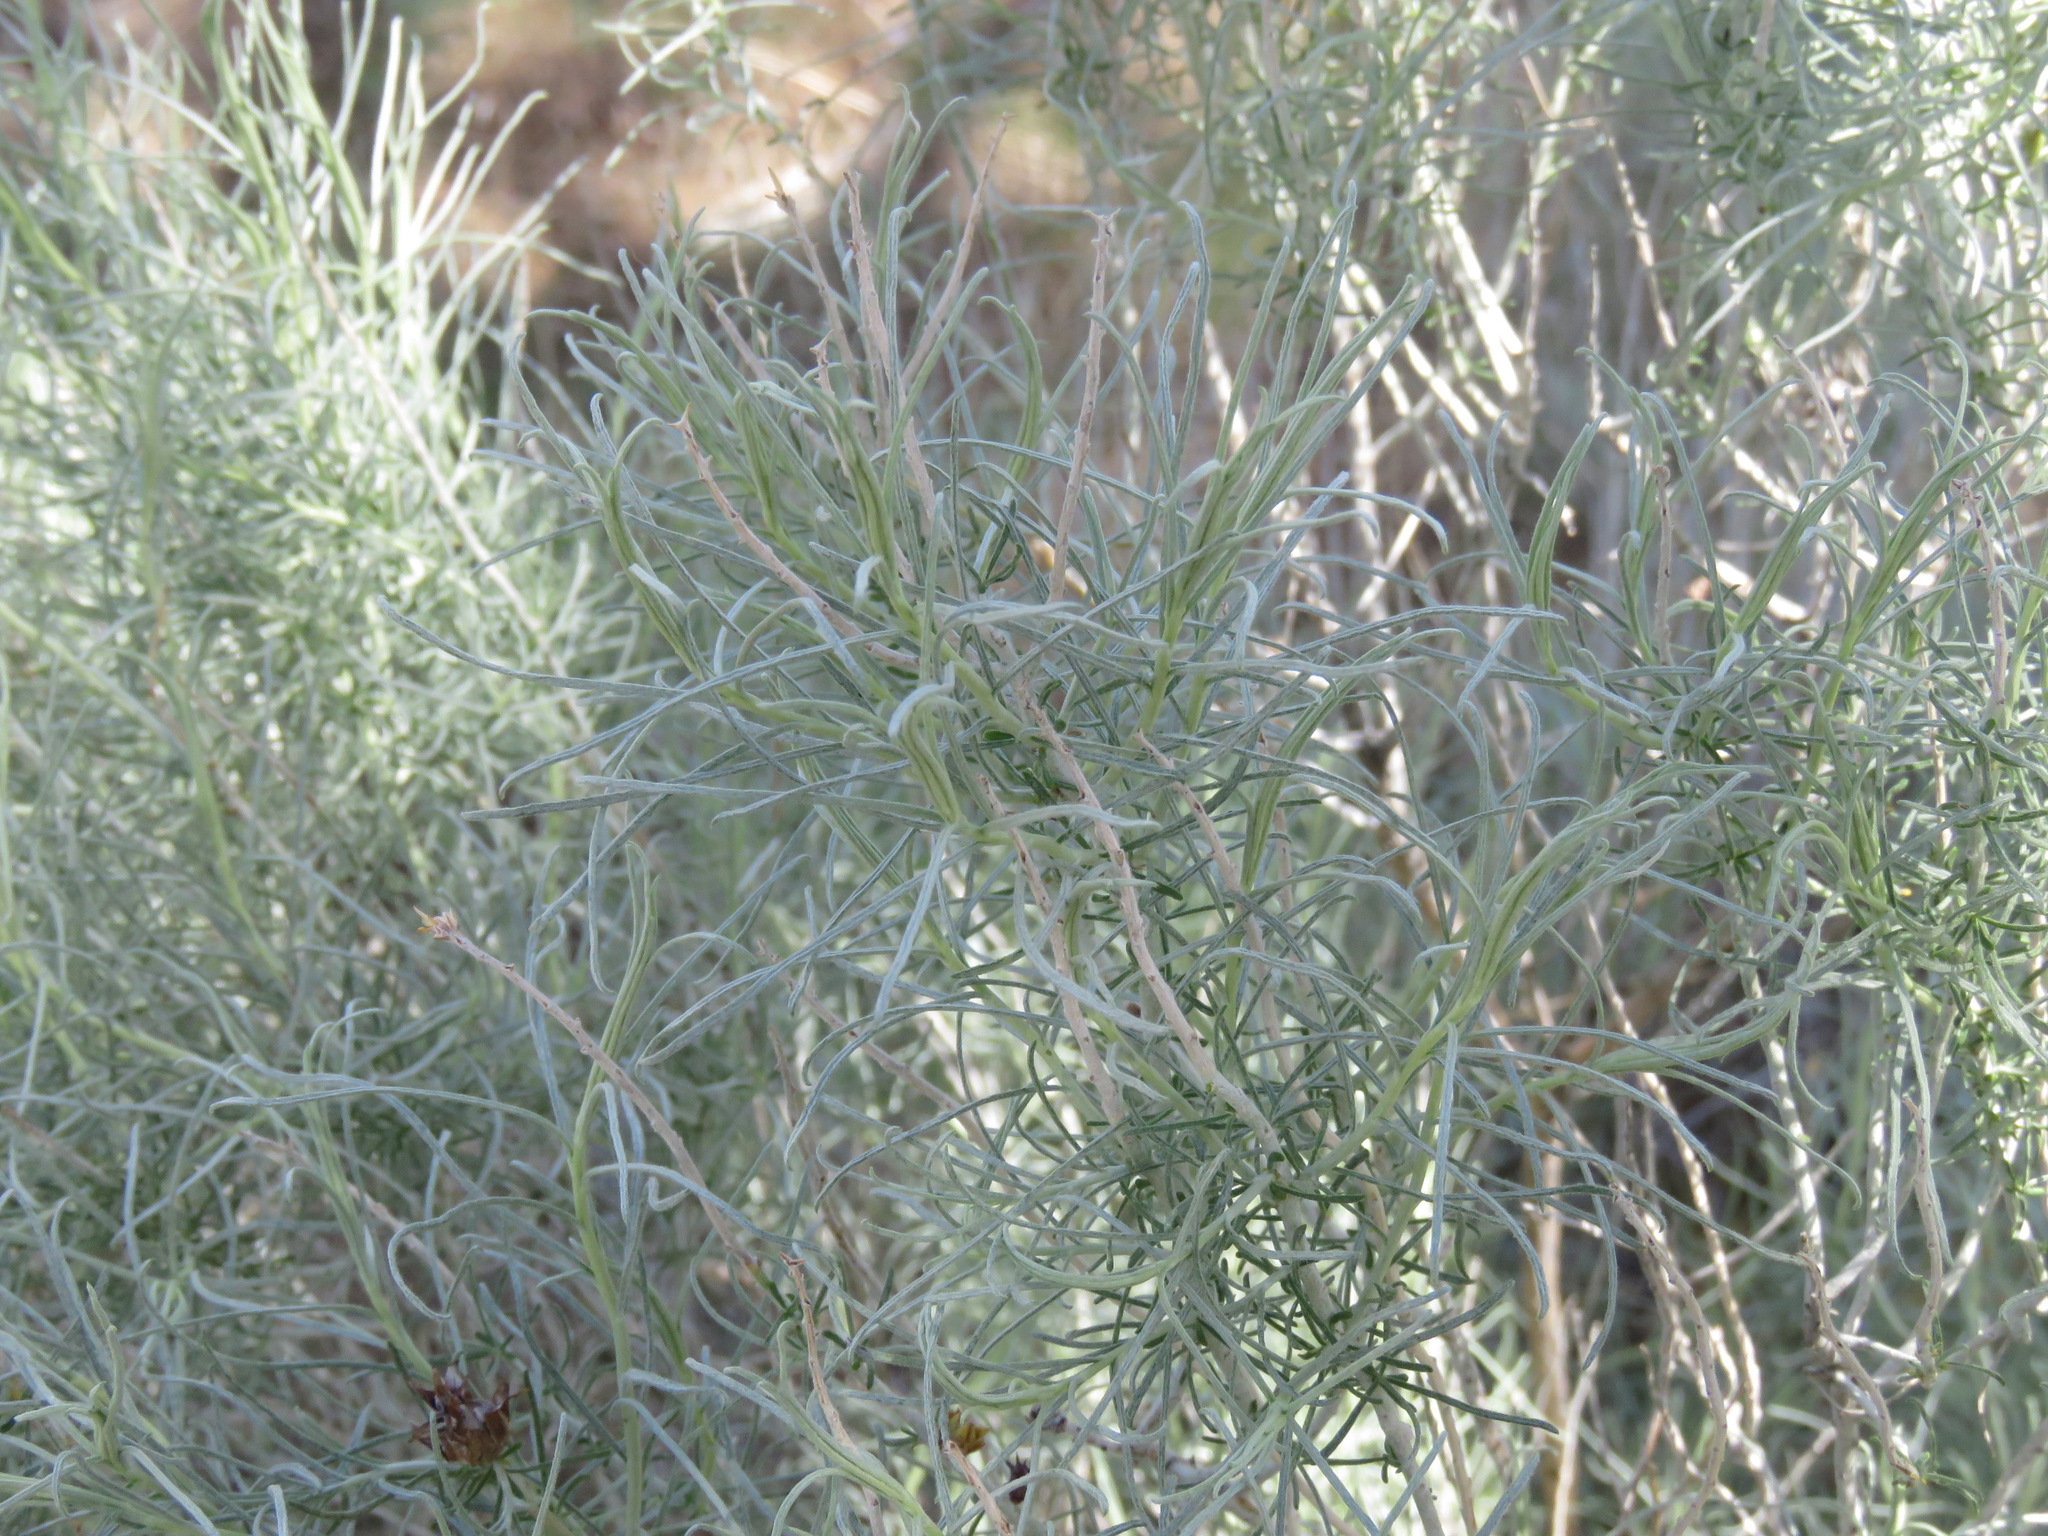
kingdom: Plantae
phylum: Tracheophyta
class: Magnoliopsida
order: Asterales
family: Asteraceae
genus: Ericameria
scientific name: Ericameria nauseosa
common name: Rubber rabbitbrush
